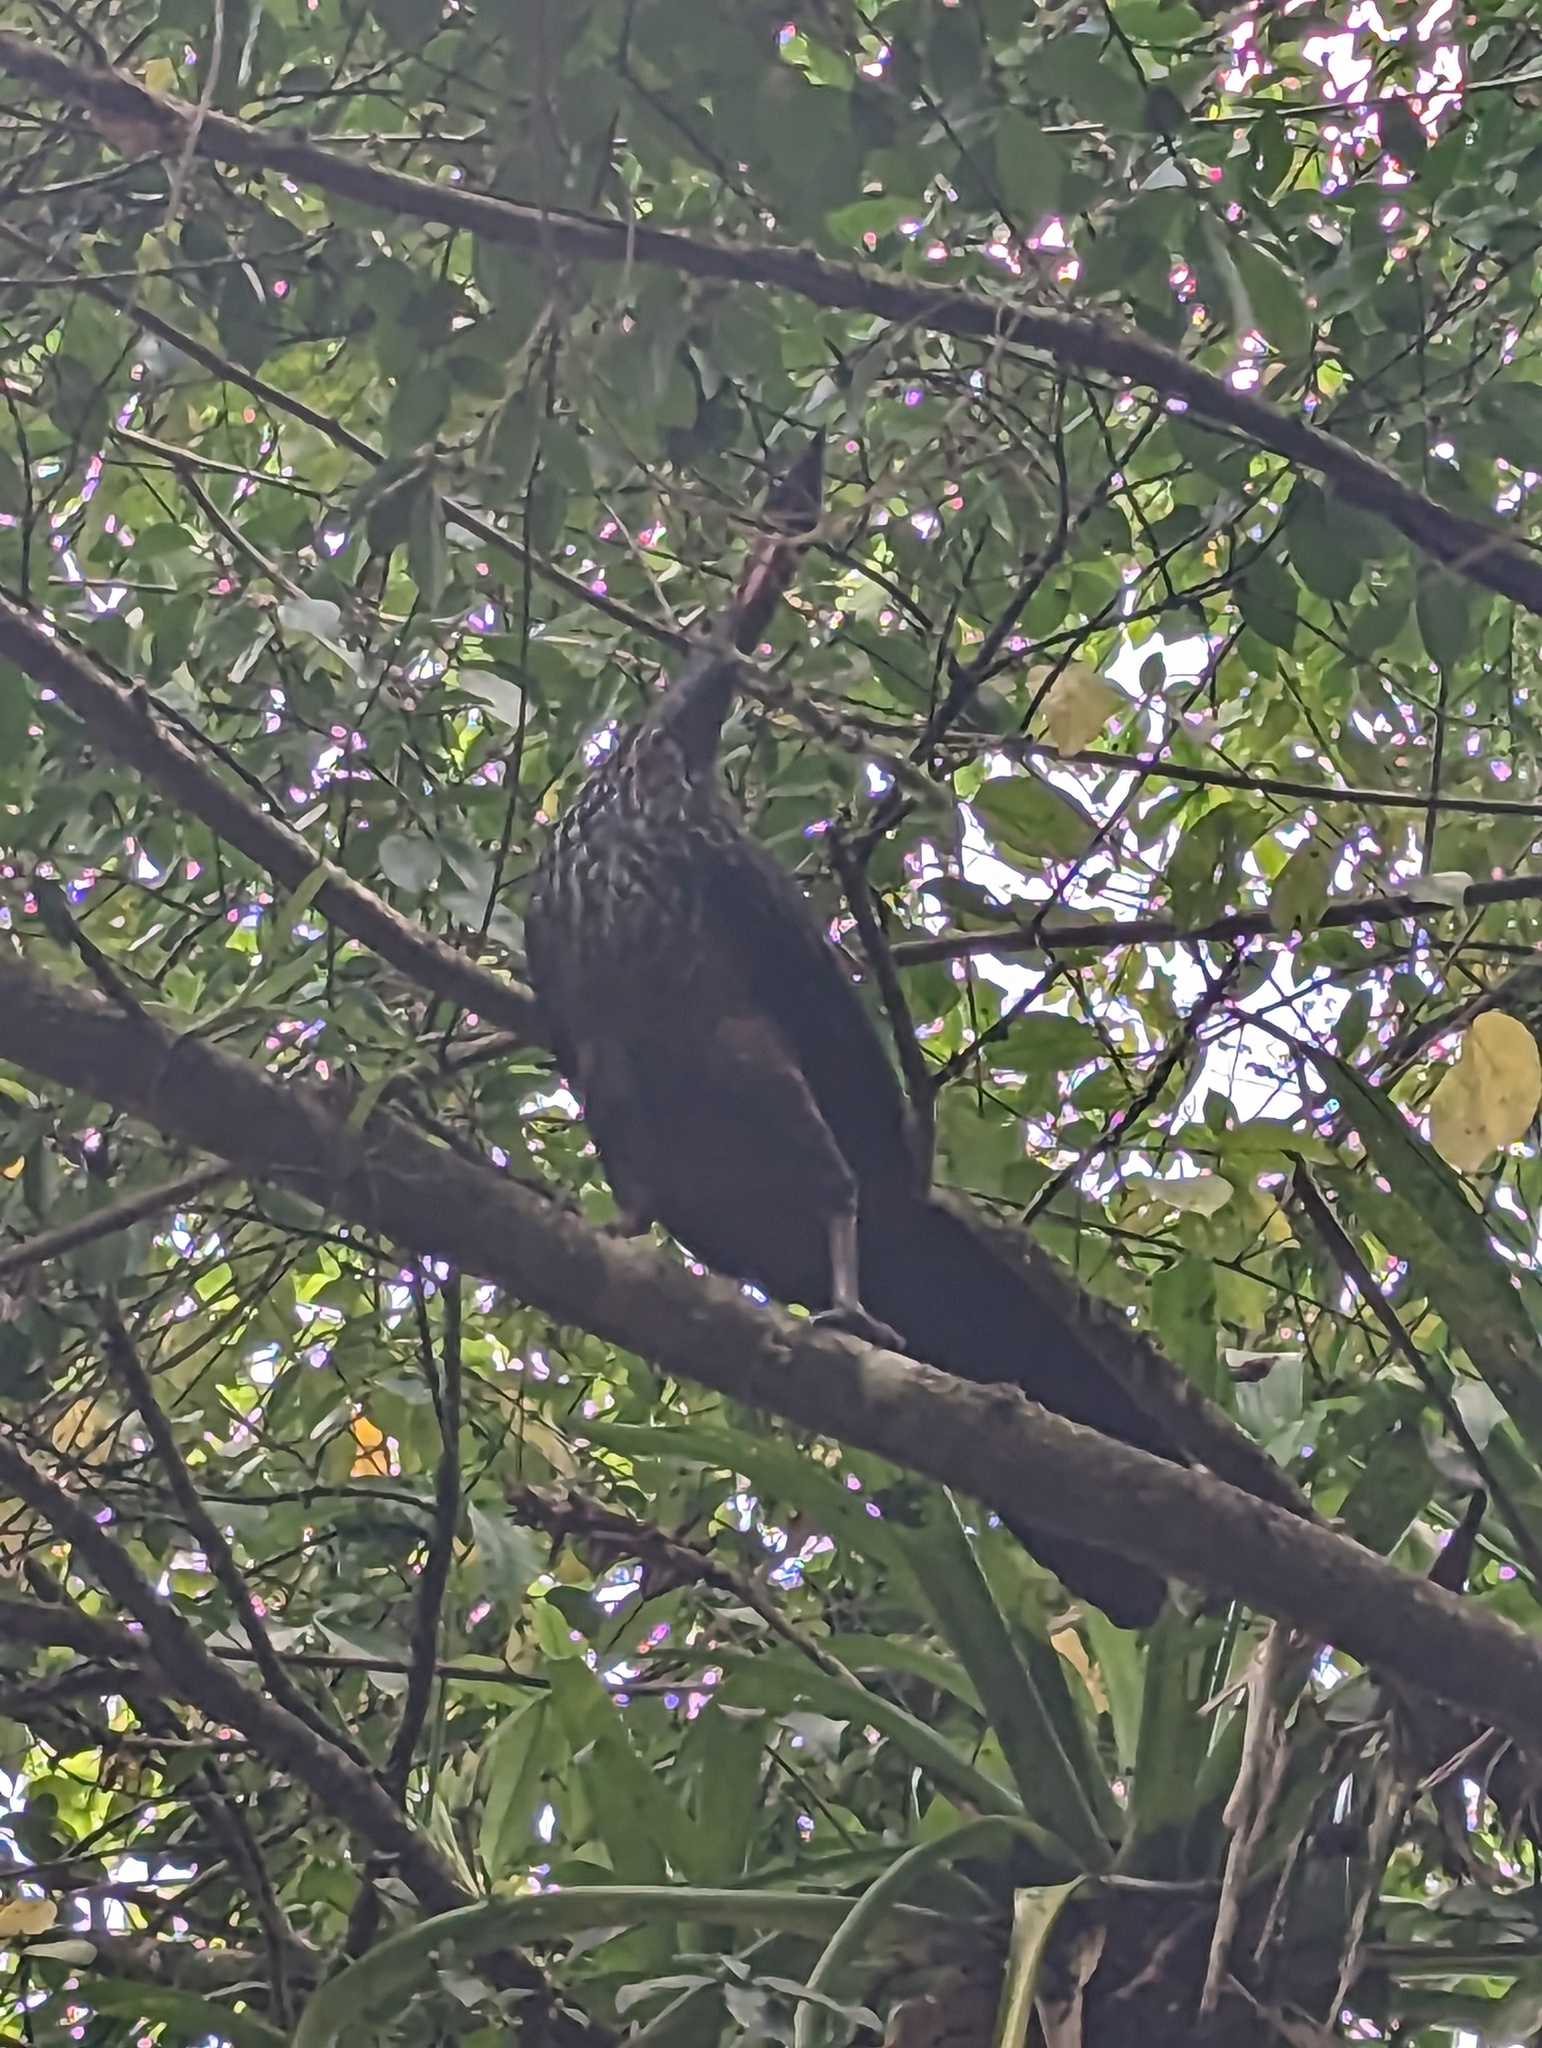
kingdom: Animalia
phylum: Chordata
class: Aves
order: Galliformes
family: Cracidae
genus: Penelope
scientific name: Penelope purpurascens
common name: Crested guan
